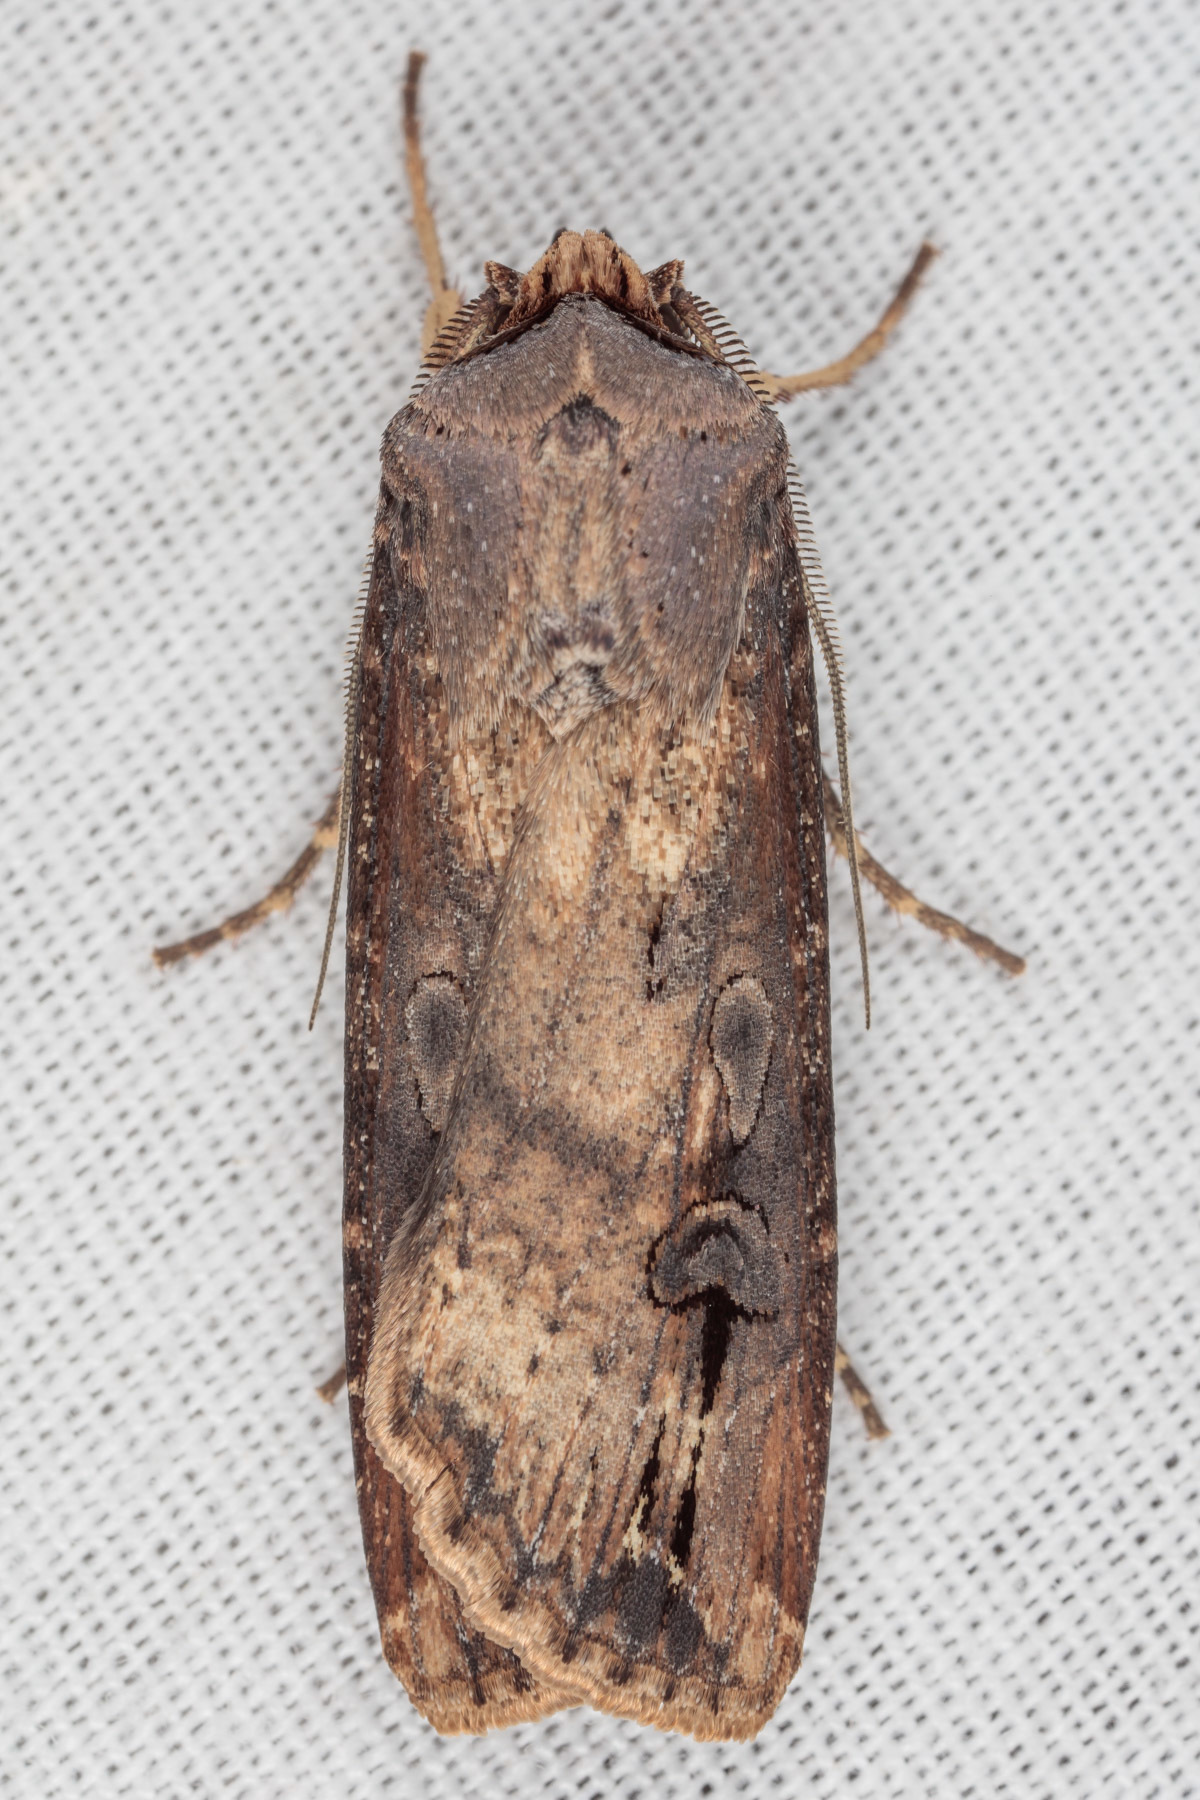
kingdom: Animalia
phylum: Arthropoda
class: Insecta
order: Lepidoptera
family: Noctuidae
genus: Agrotis
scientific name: Agrotis ipsilon
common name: Dark sword-grass
